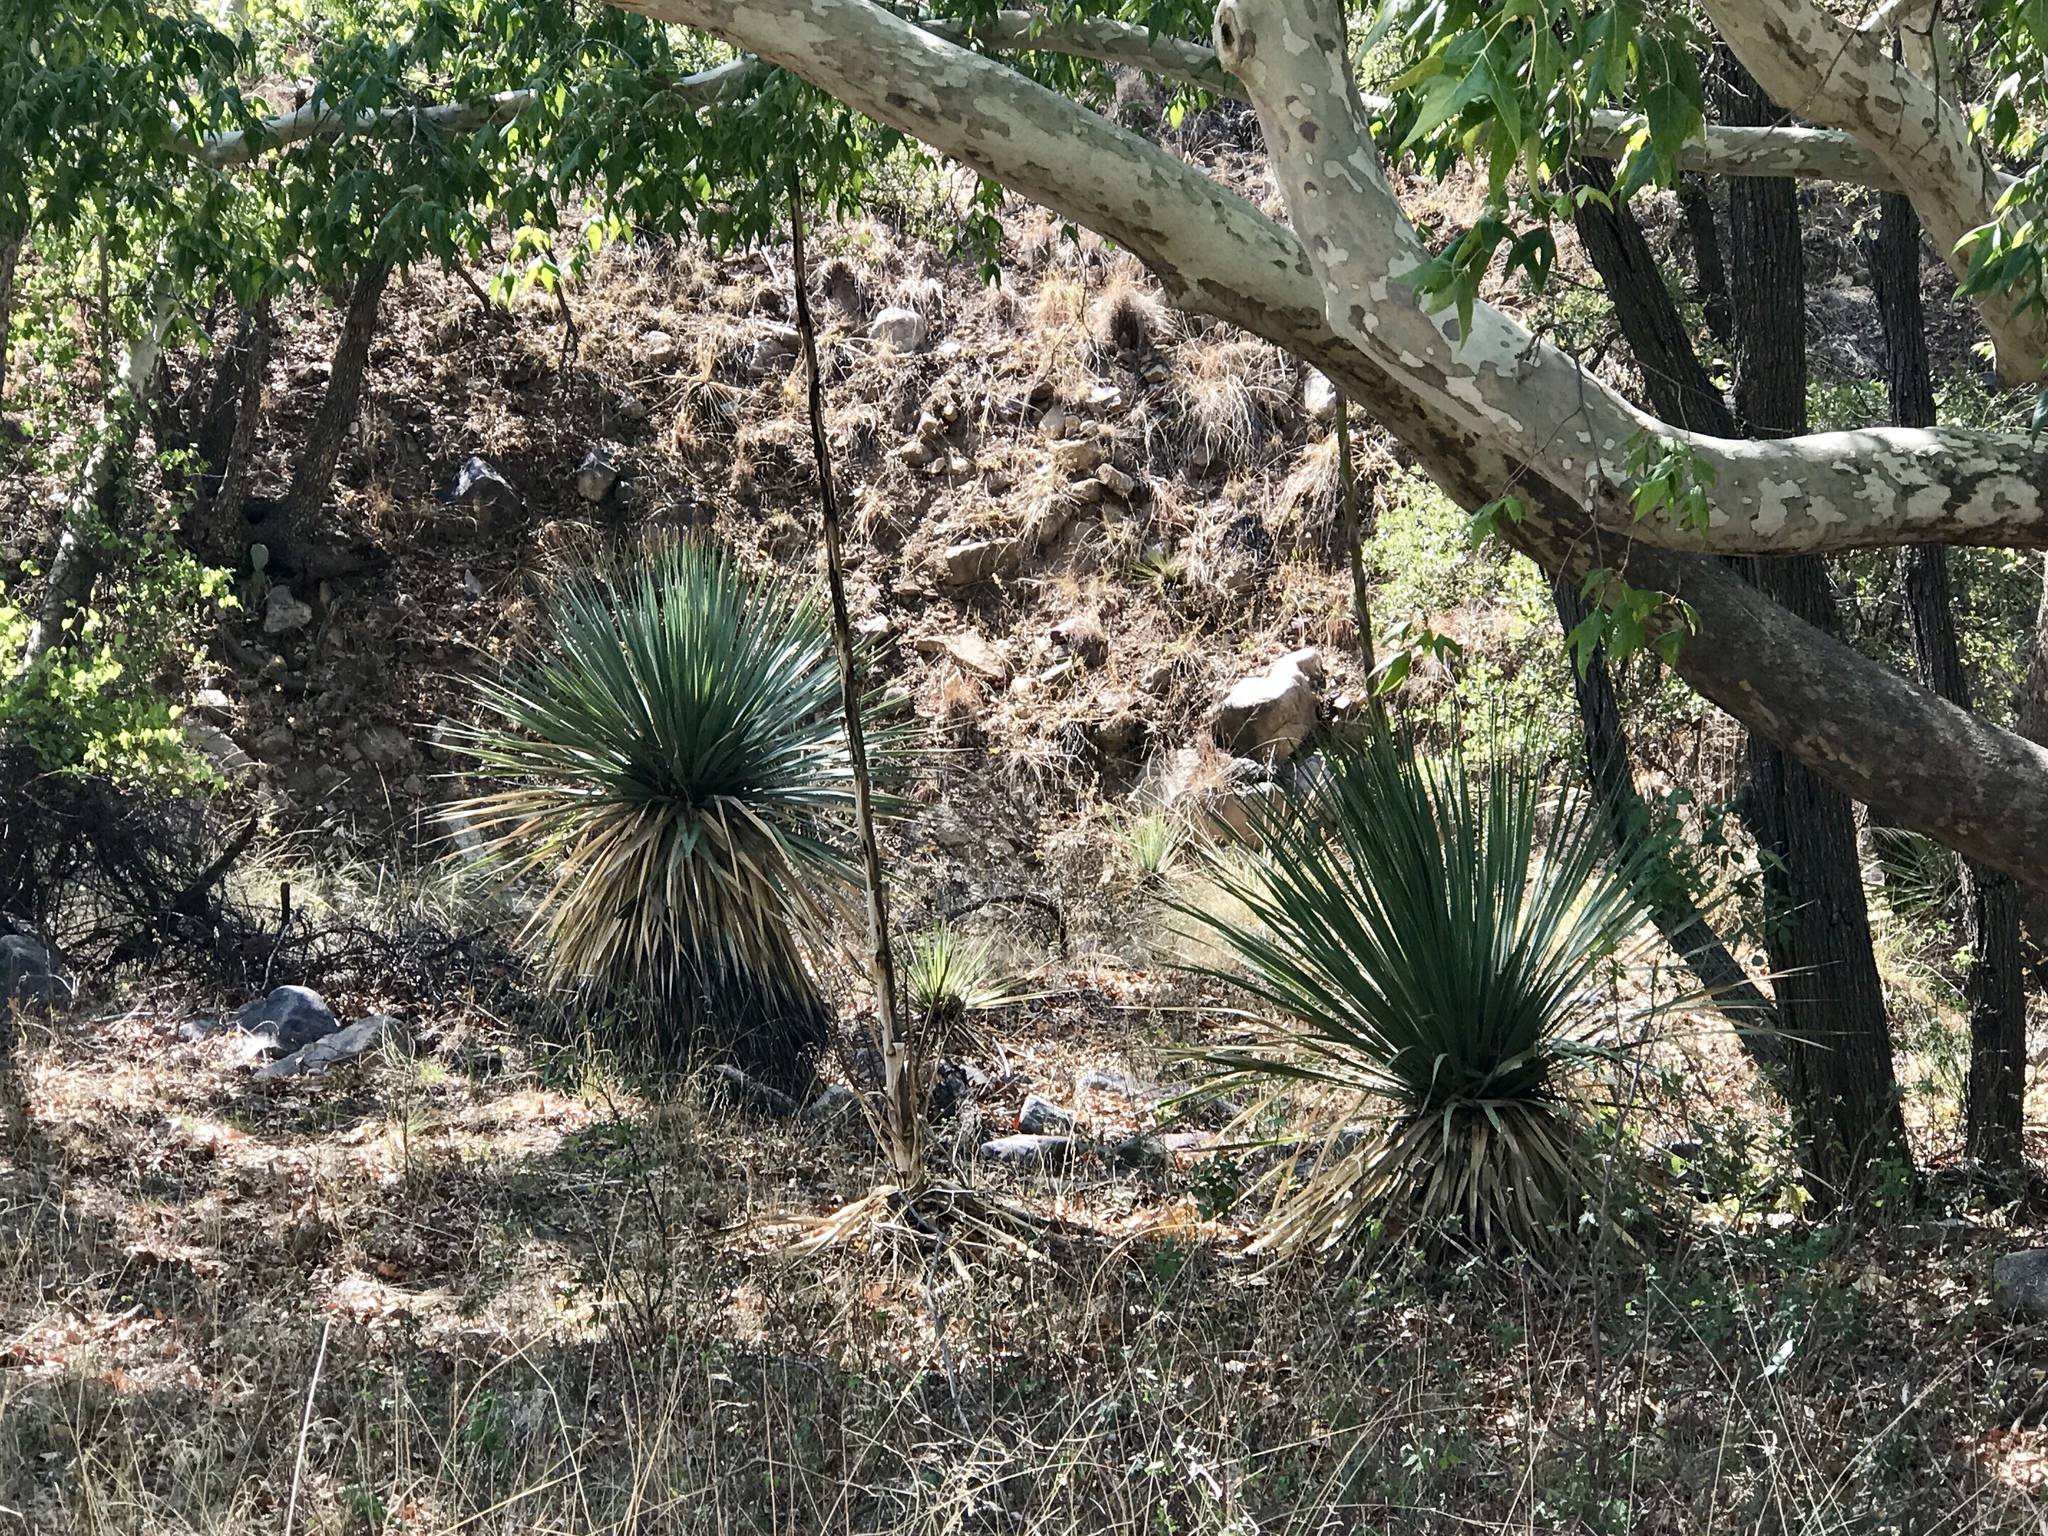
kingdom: Plantae
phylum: Tracheophyta
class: Liliopsida
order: Asparagales
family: Asparagaceae
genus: Dasylirion
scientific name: Dasylirion wheeleri
